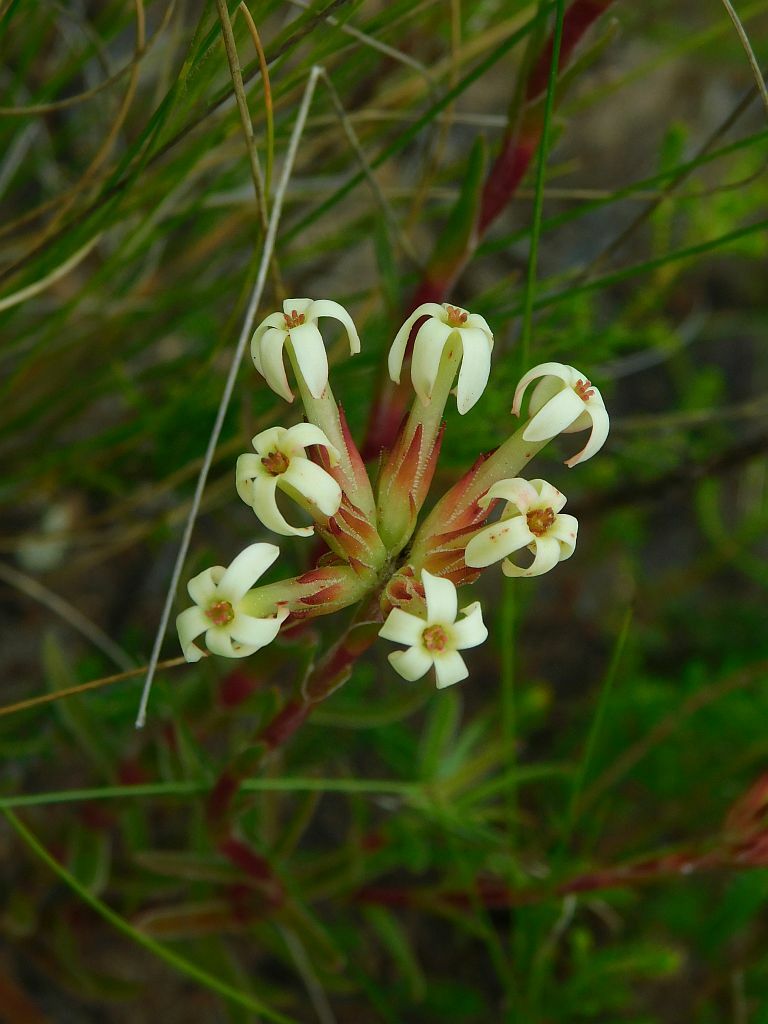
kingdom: Plantae
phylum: Tracheophyta
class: Magnoliopsida
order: Saxifragales
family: Crassulaceae
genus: Crassula
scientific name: Crassula fascicularis
